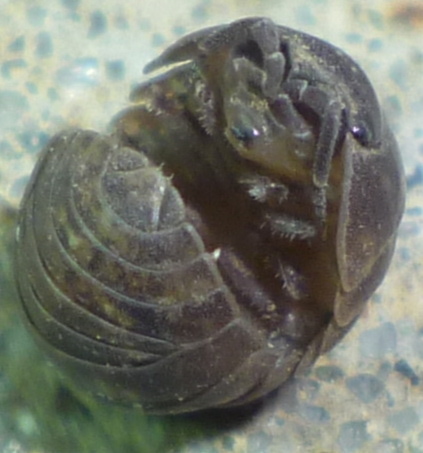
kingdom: Animalia
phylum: Arthropoda
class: Malacostraca
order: Isopoda
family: Armadillidiidae
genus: Armadillidium
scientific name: Armadillidium vulgare
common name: Common pill woodlouse
